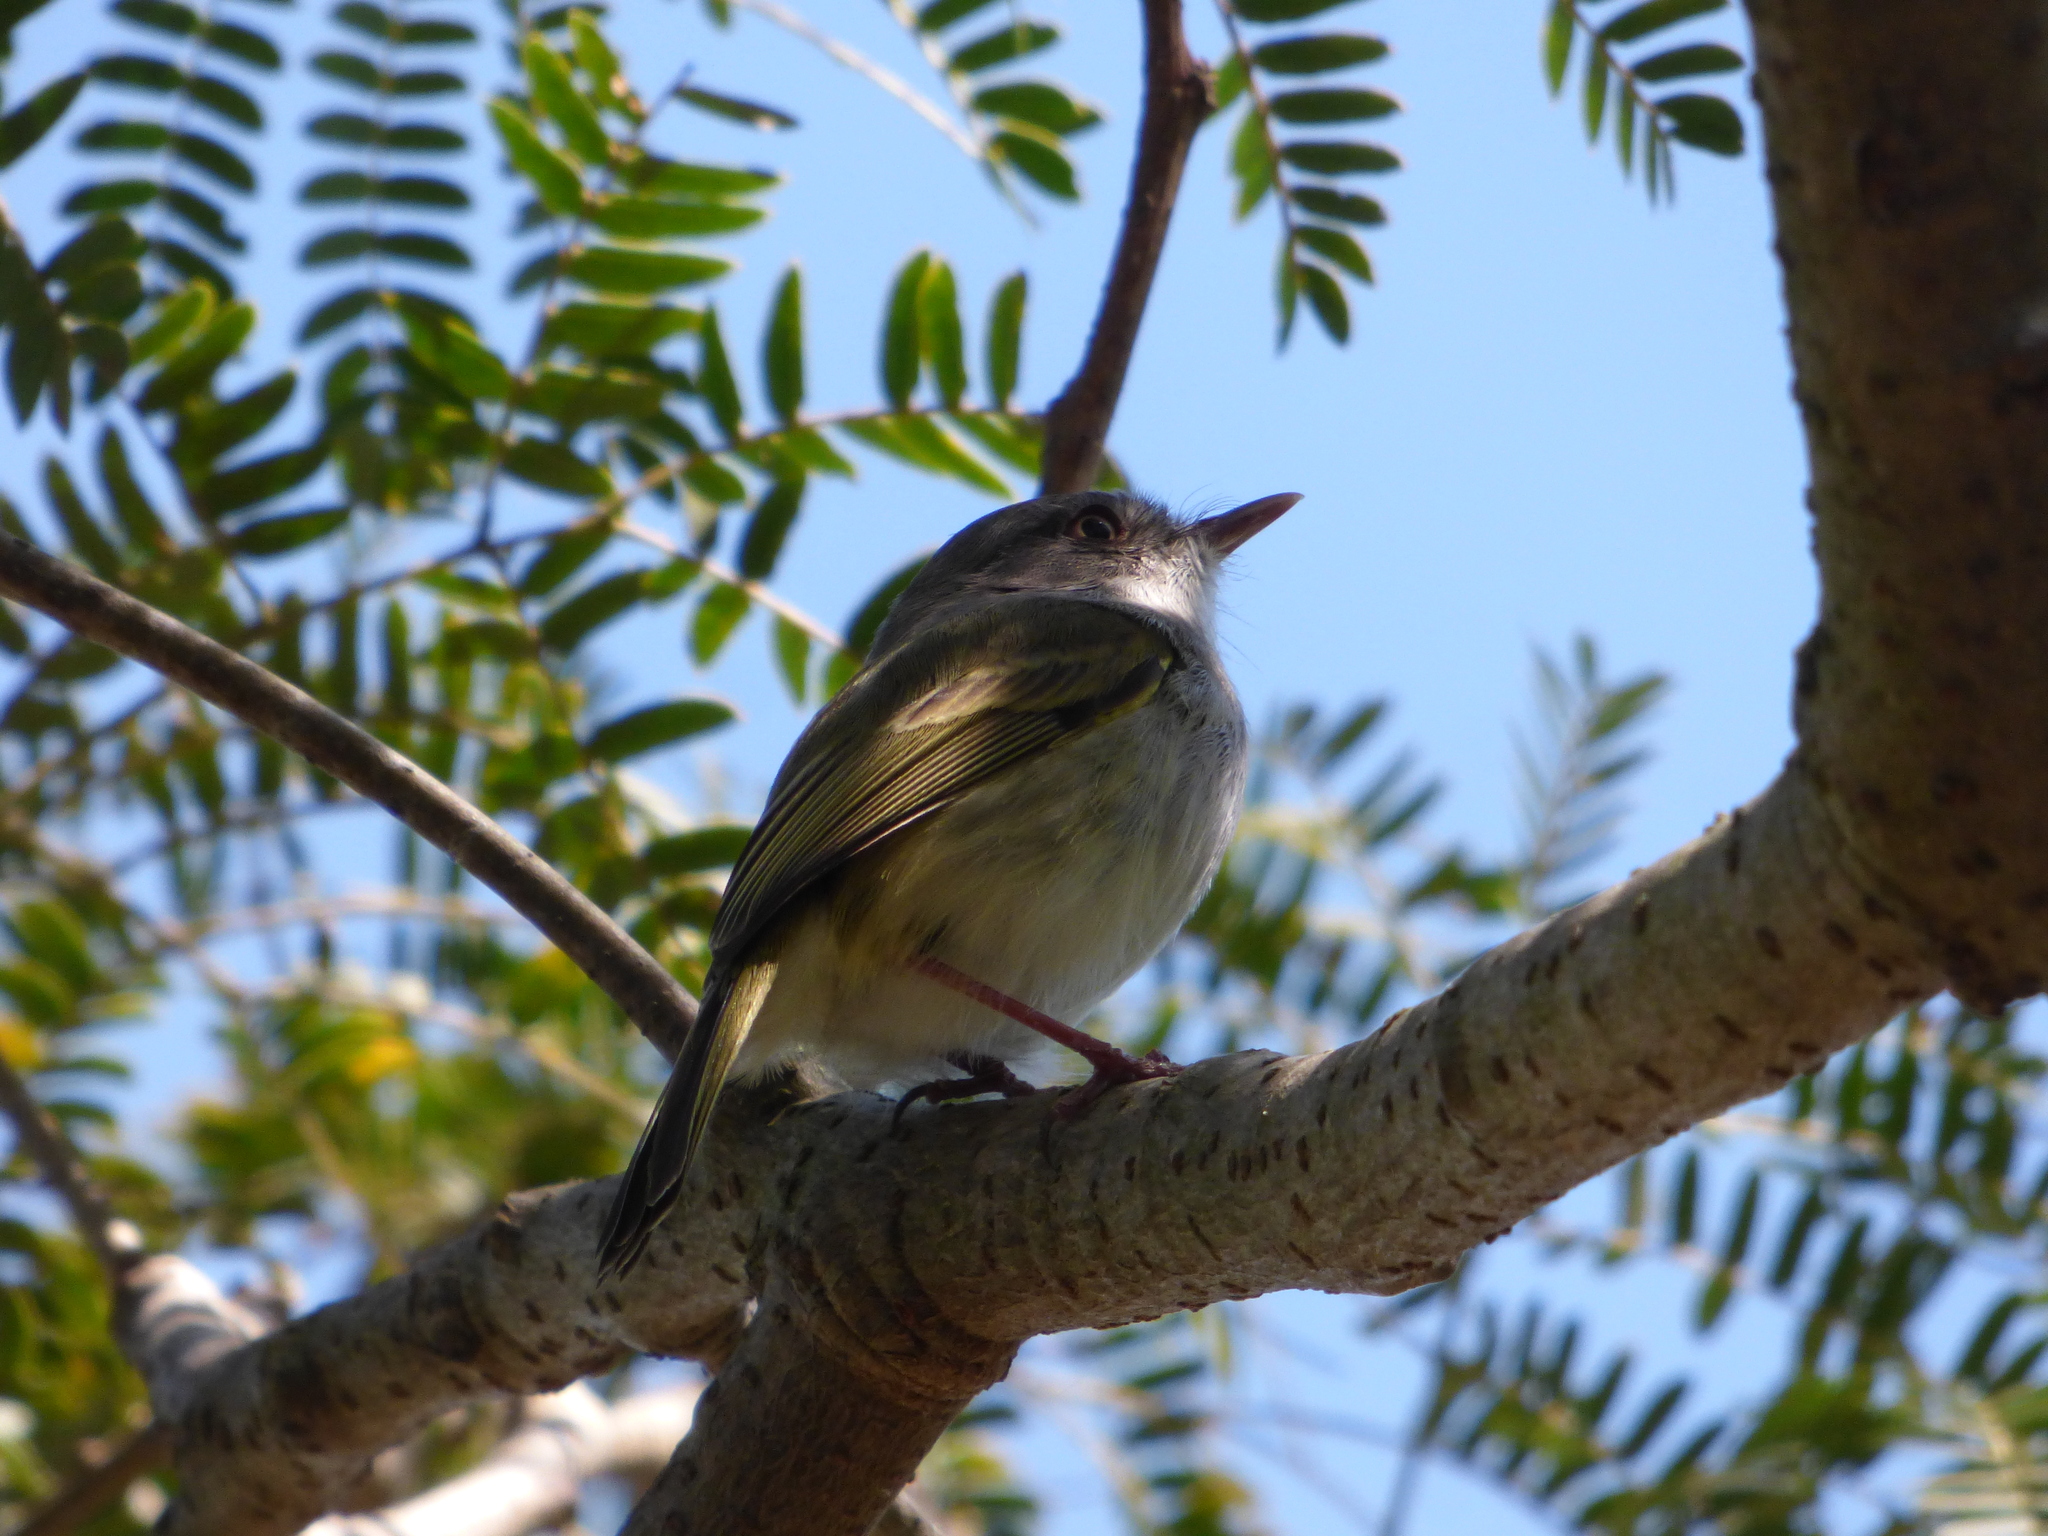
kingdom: Animalia
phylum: Chordata
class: Aves
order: Passeriformes
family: Tyrannidae
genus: Hemitriccus
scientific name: Hemitriccus margaritaceiventer
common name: Pearly-vented tody-tyrant
